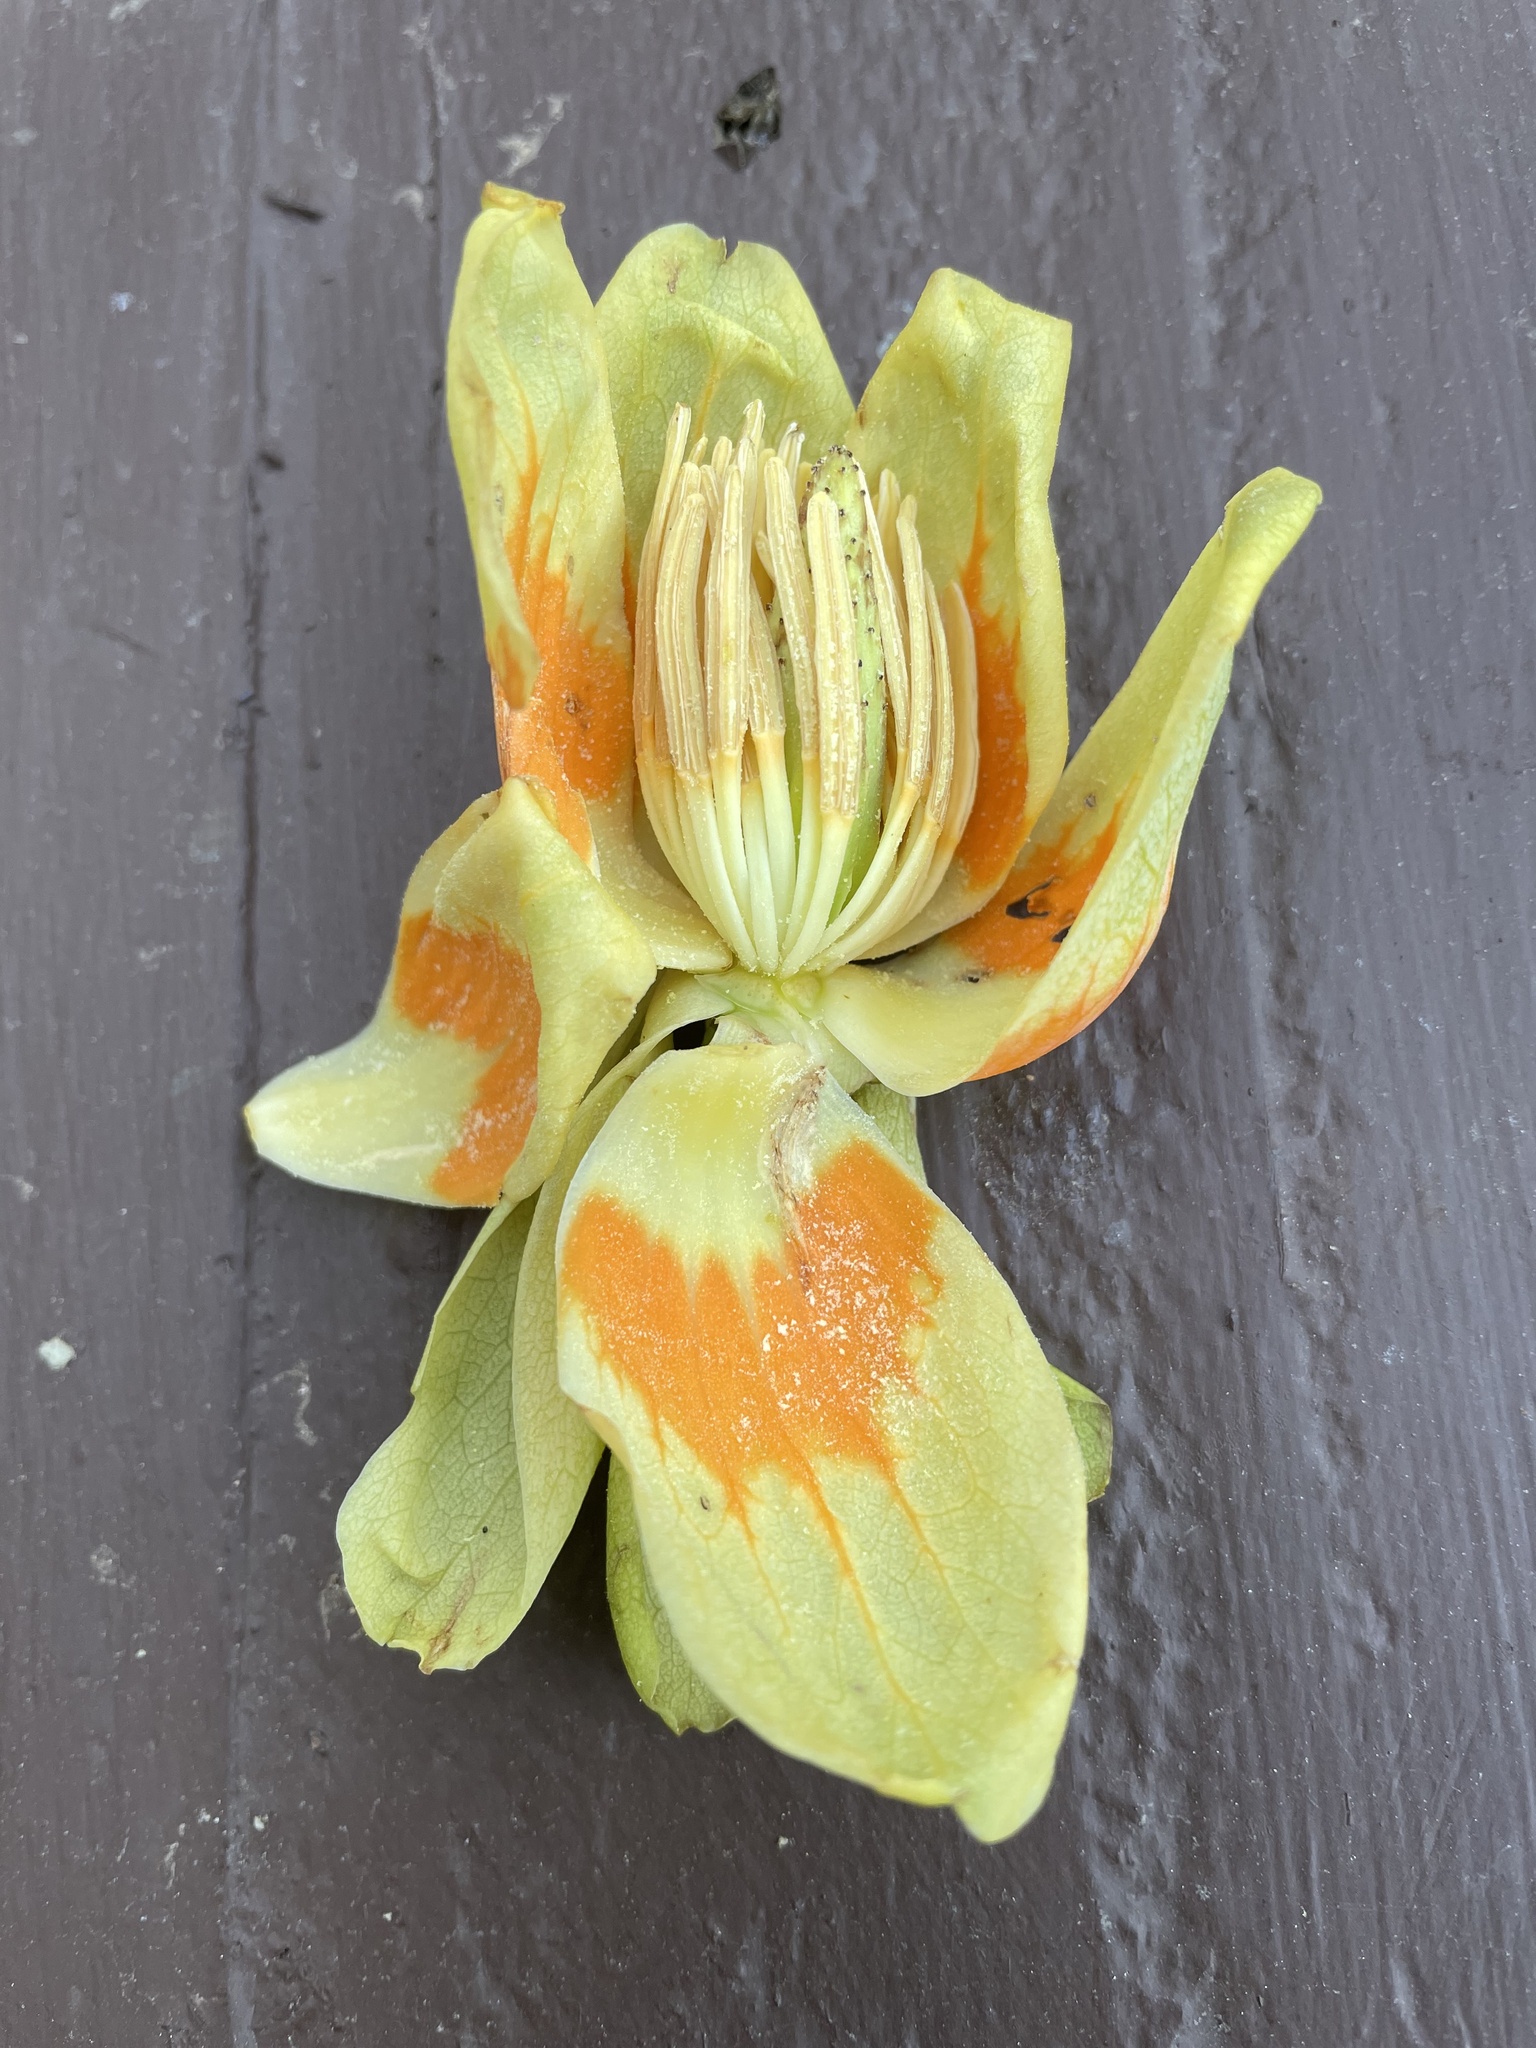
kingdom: Plantae
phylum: Tracheophyta
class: Magnoliopsida
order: Magnoliales
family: Magnoliaceae
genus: Liriodendron
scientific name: Liriodendron tulipifera
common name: Tulip tree
